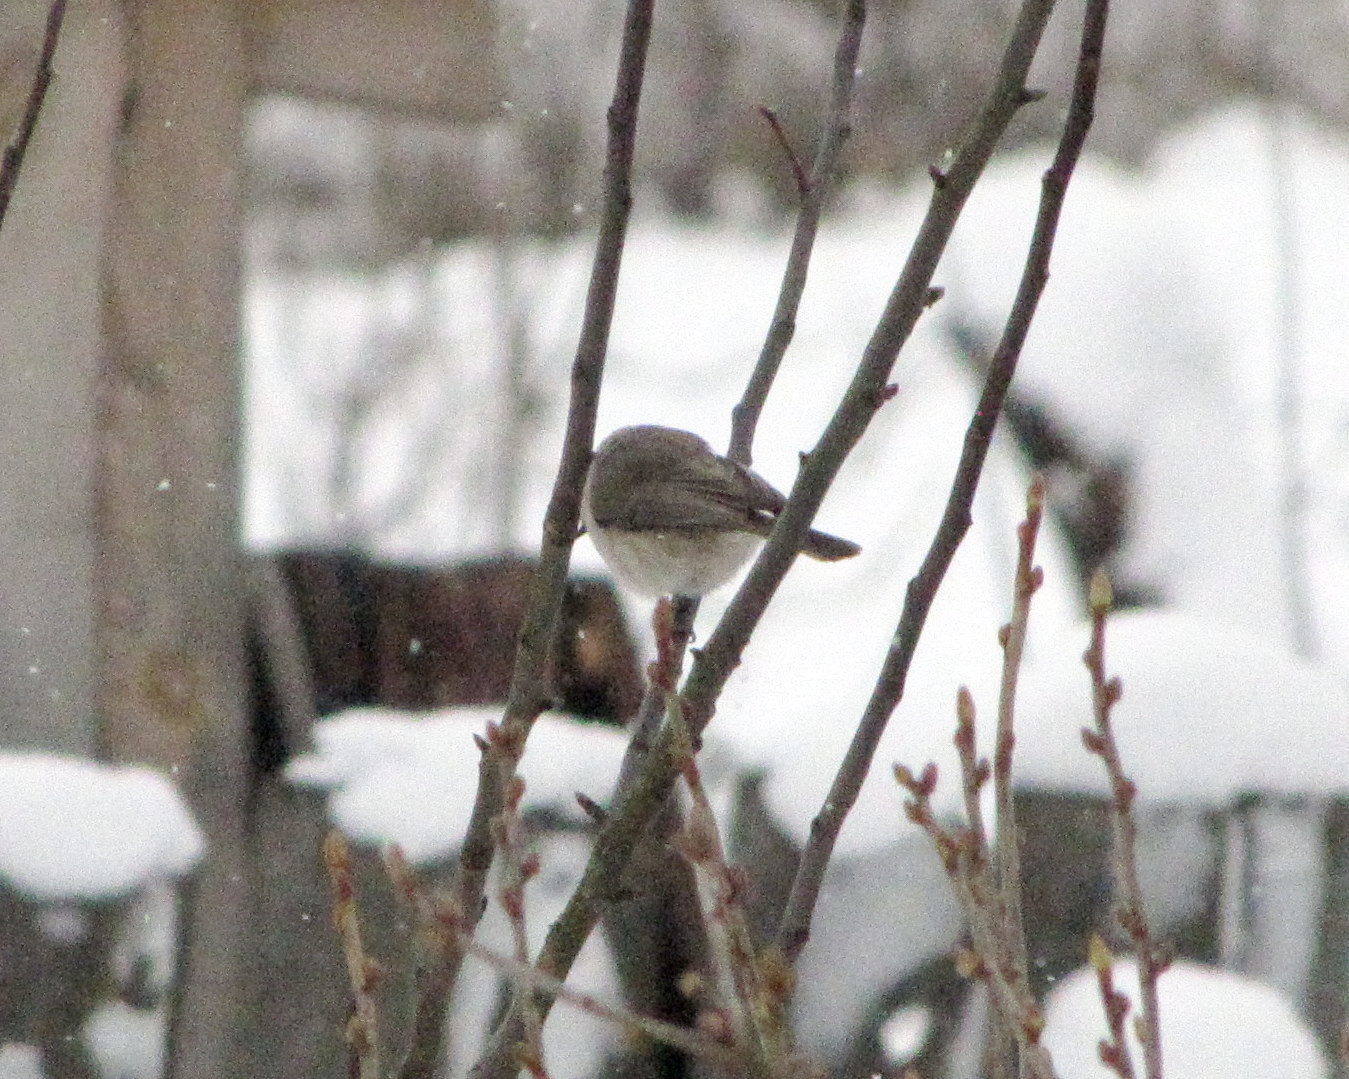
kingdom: Animalia
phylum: Chordata
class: Aves
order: Passeriformes
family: Paridae
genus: Poecile
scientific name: Poecile palustris
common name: Marsh tit
